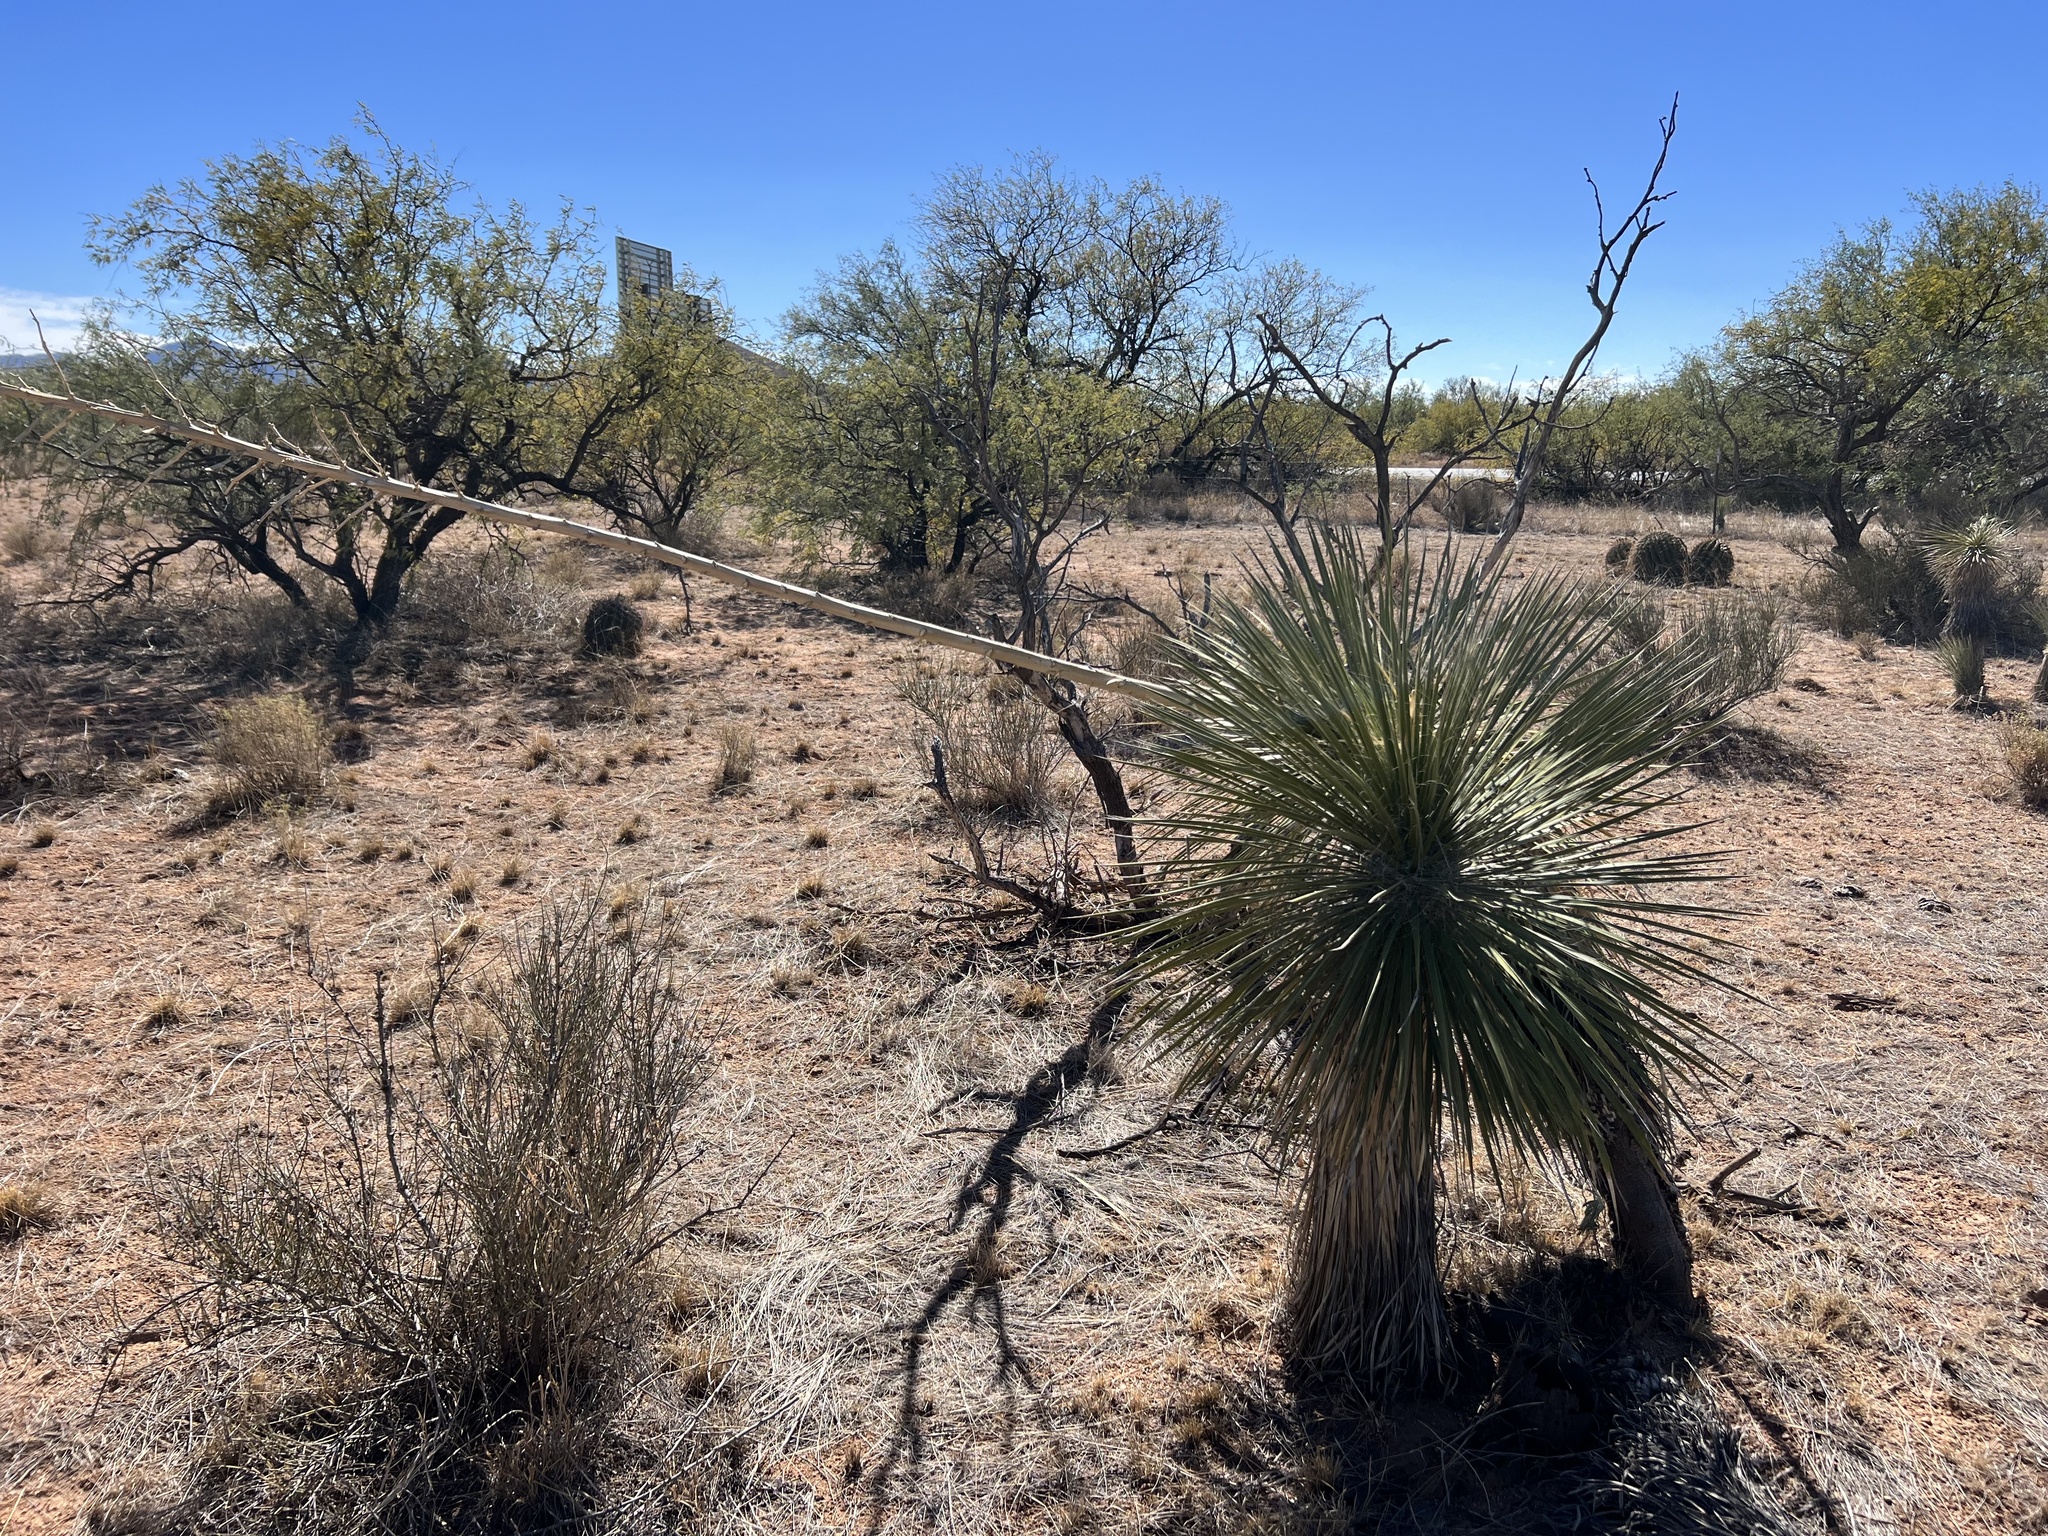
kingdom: Plantae
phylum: Tracheophyta
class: Liliopsida
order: Asparagales
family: Asparagaceae
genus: Yucca
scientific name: Yucca elata
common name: Palmella
